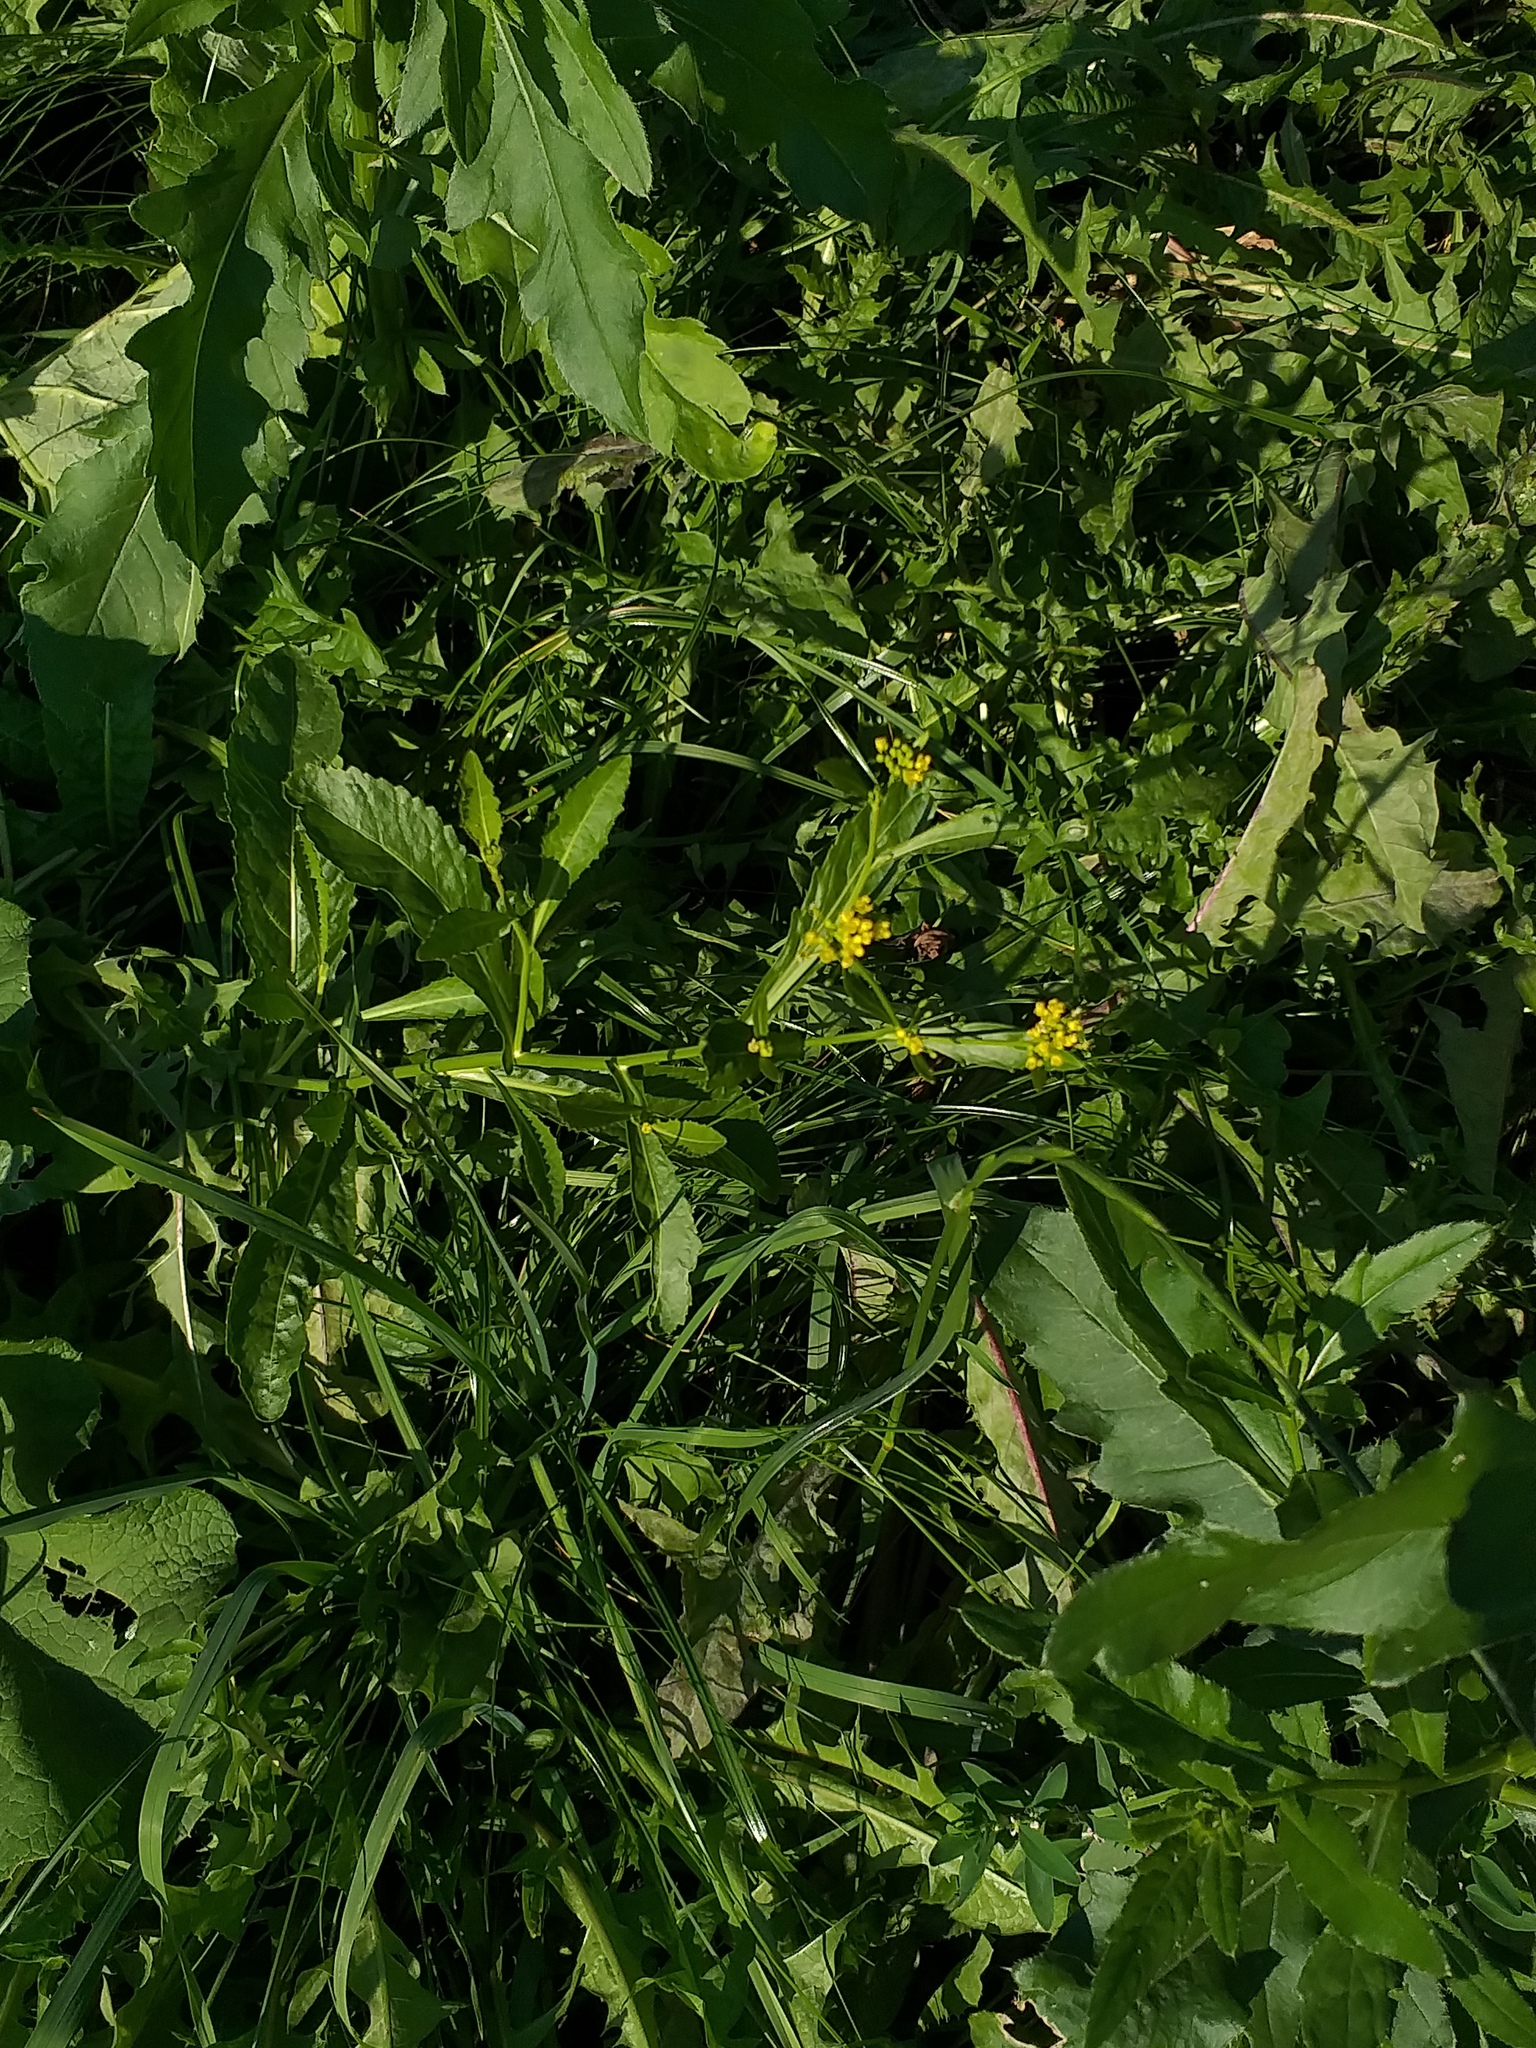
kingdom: Plantae
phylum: Tracheophyta
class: Magnoliopsida
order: Brassicales
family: Brassicaceae
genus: Rorippa
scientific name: Rorippa austriaca
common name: Austrian yellow-cress
